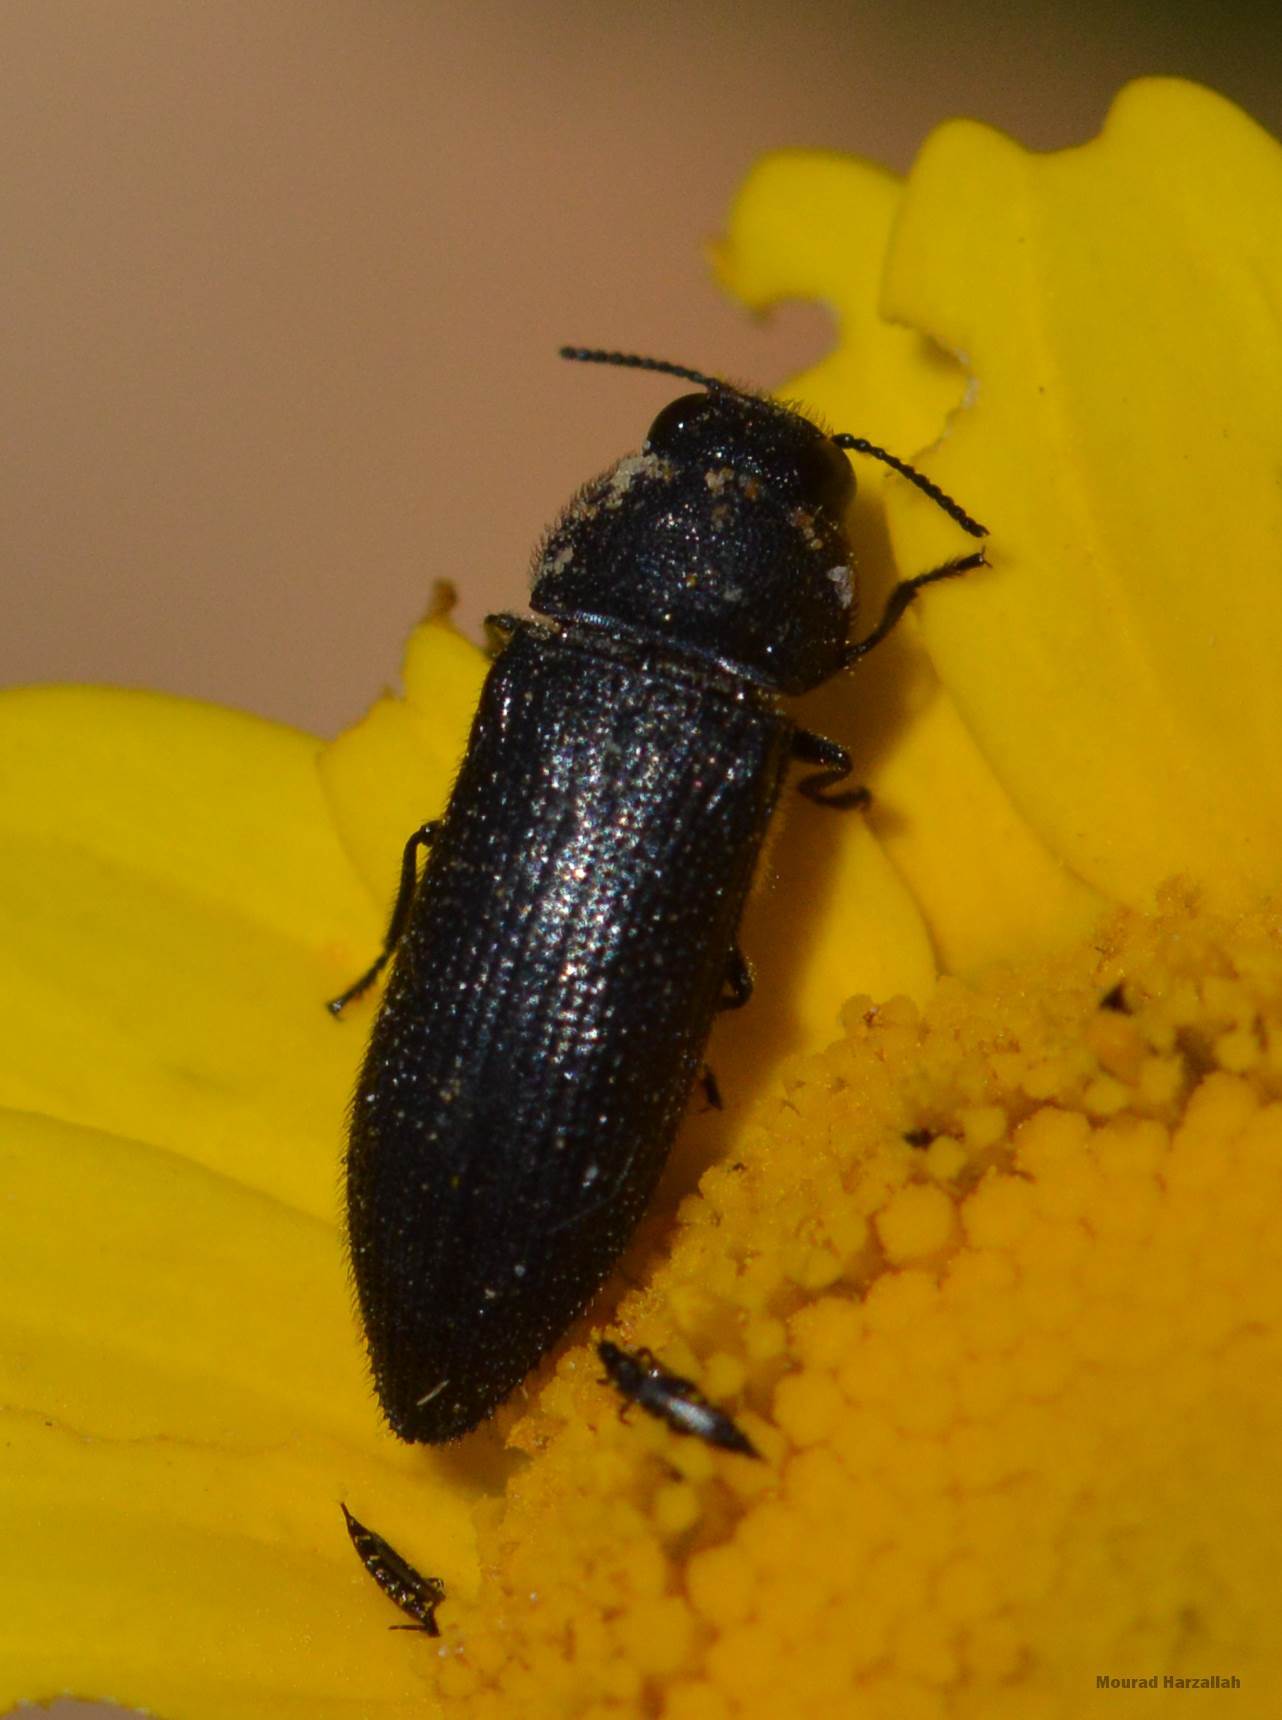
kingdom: Animalia
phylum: Arthropoda
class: Insecta
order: Coleoptera
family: Buprestidae
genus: Acmaeodera
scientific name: Acmaeodera crinita
